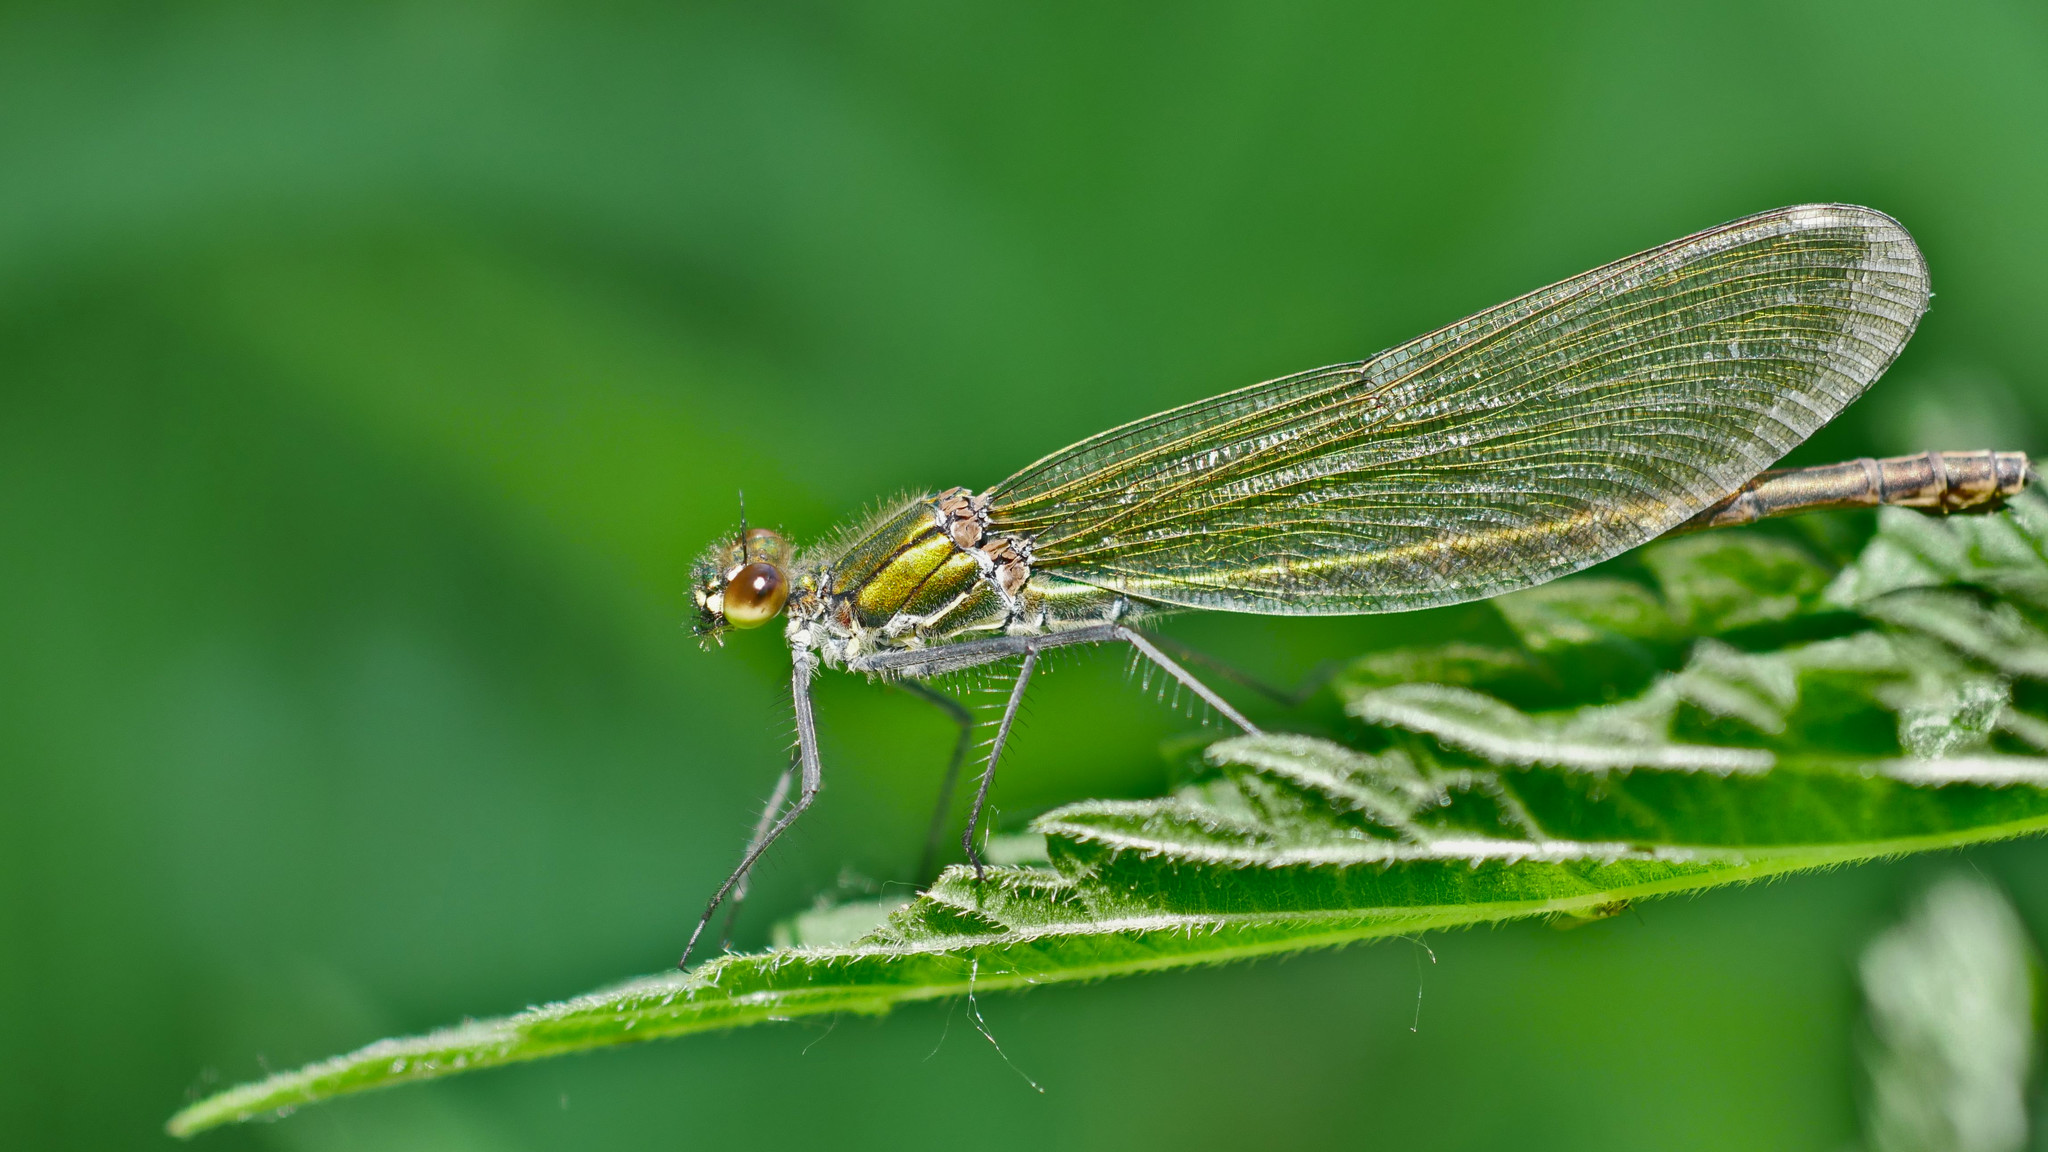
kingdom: Animalia
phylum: Arthropoda
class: Insecta
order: Odonata
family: Calopterygidae
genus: Calopteryx
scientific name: Calopteryx splendens
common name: Banded demoiselle
